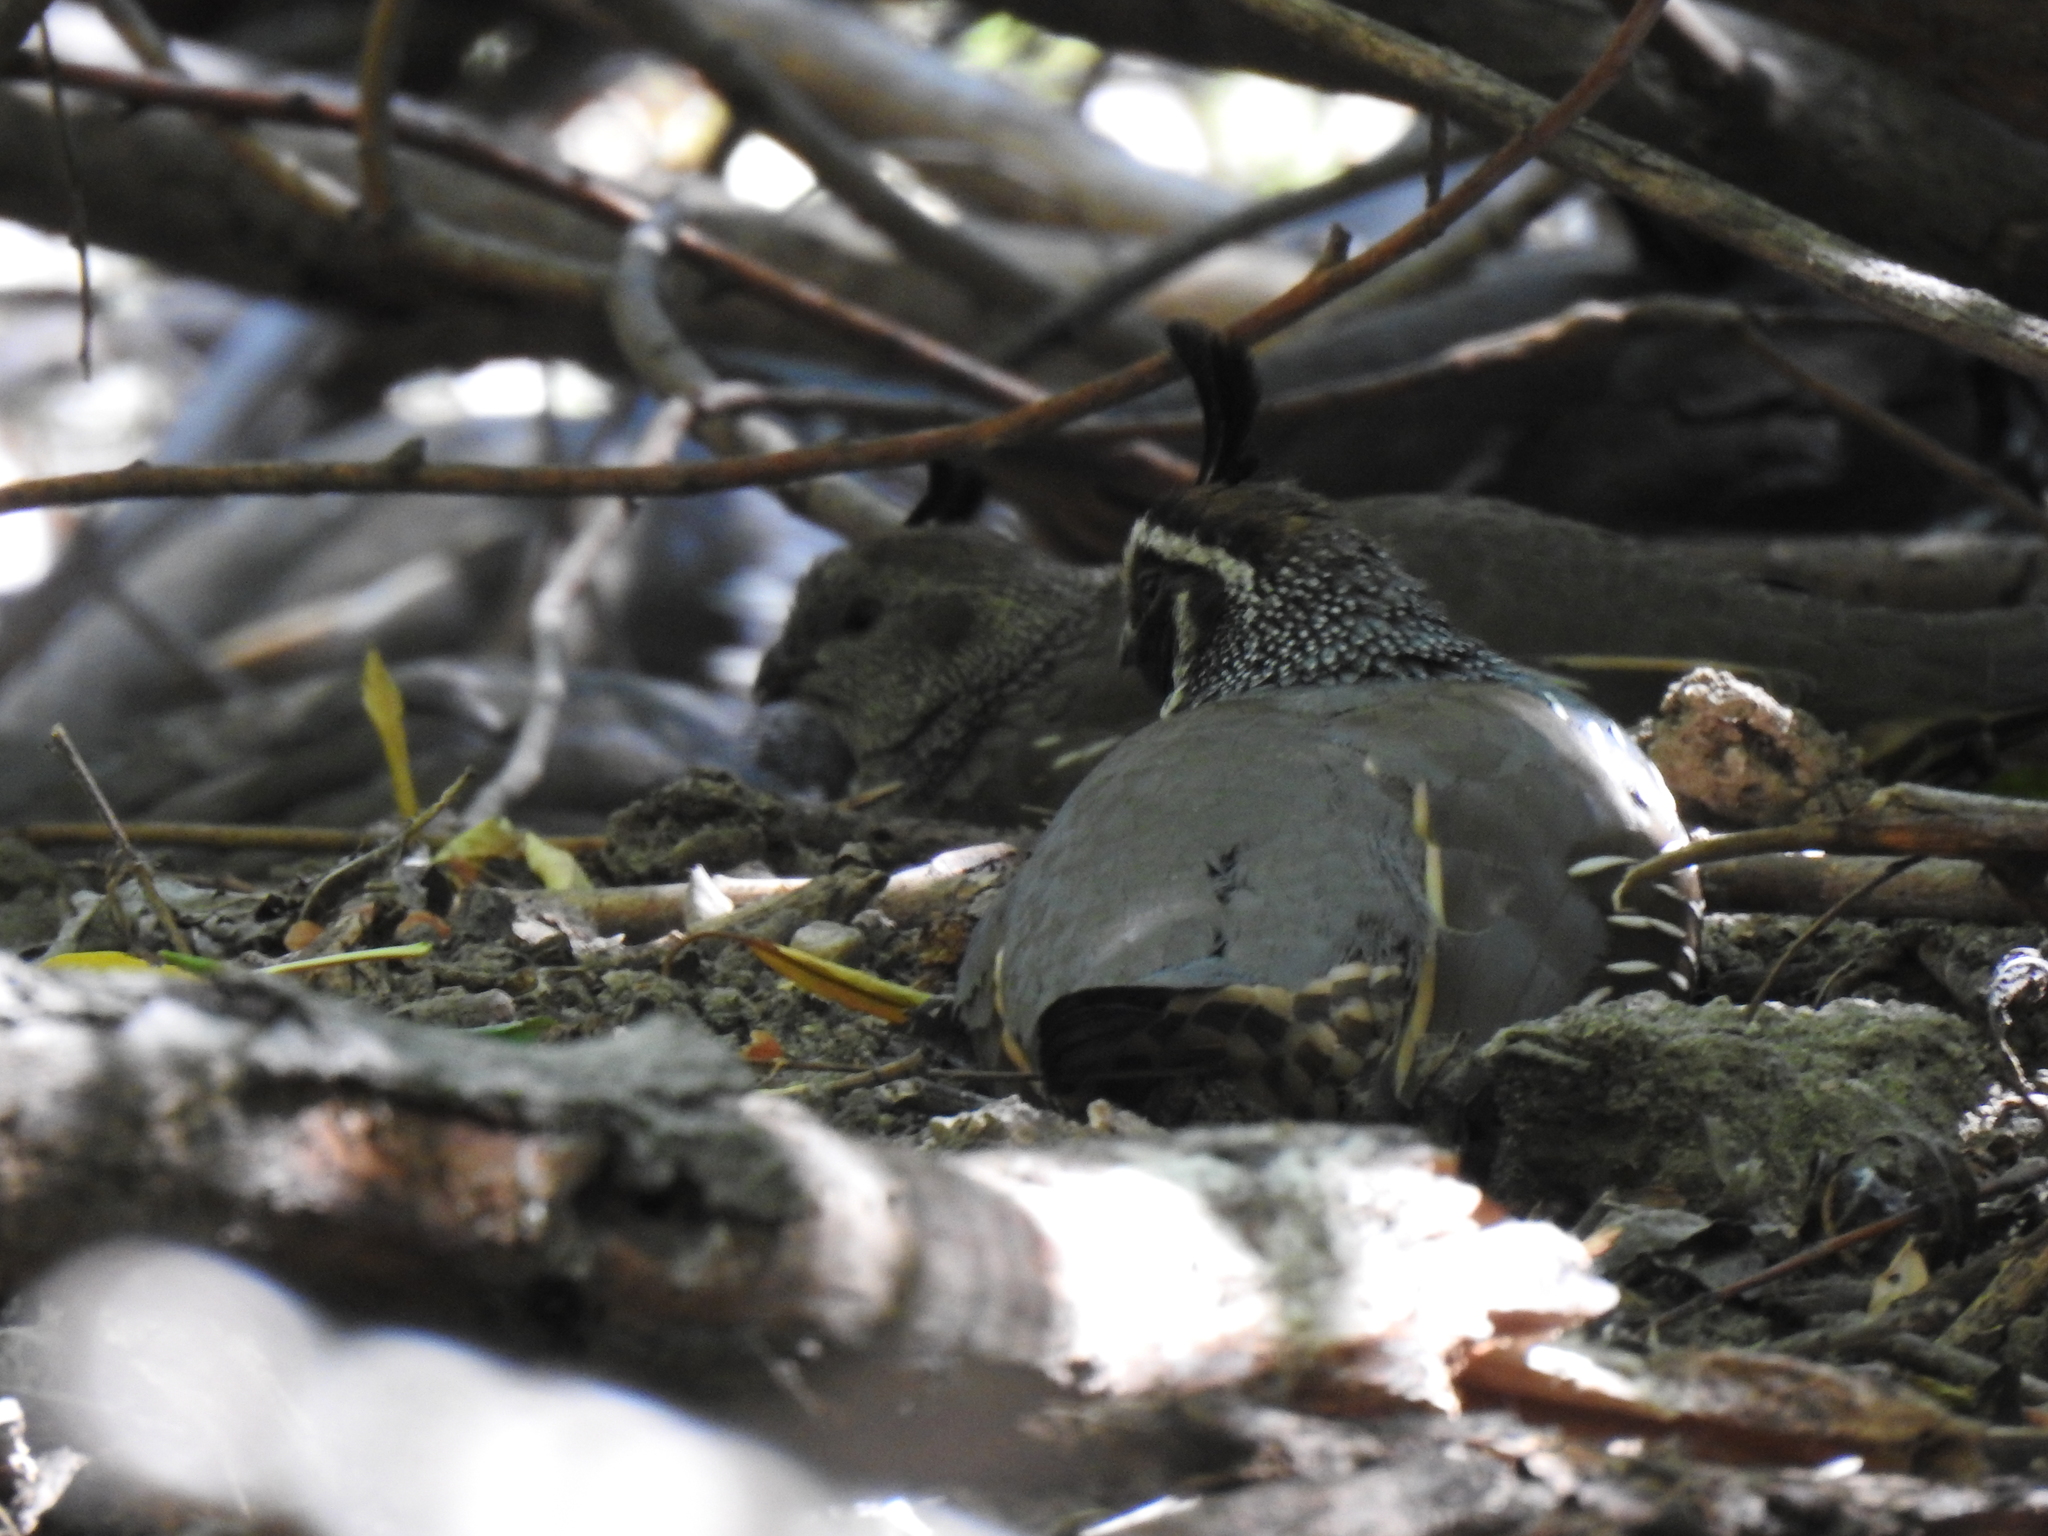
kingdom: Animalia
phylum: Chordata
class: Aves
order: Galliformes
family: Odontophoridae
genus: Callipepla
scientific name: Callipepla californica
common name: California quail
